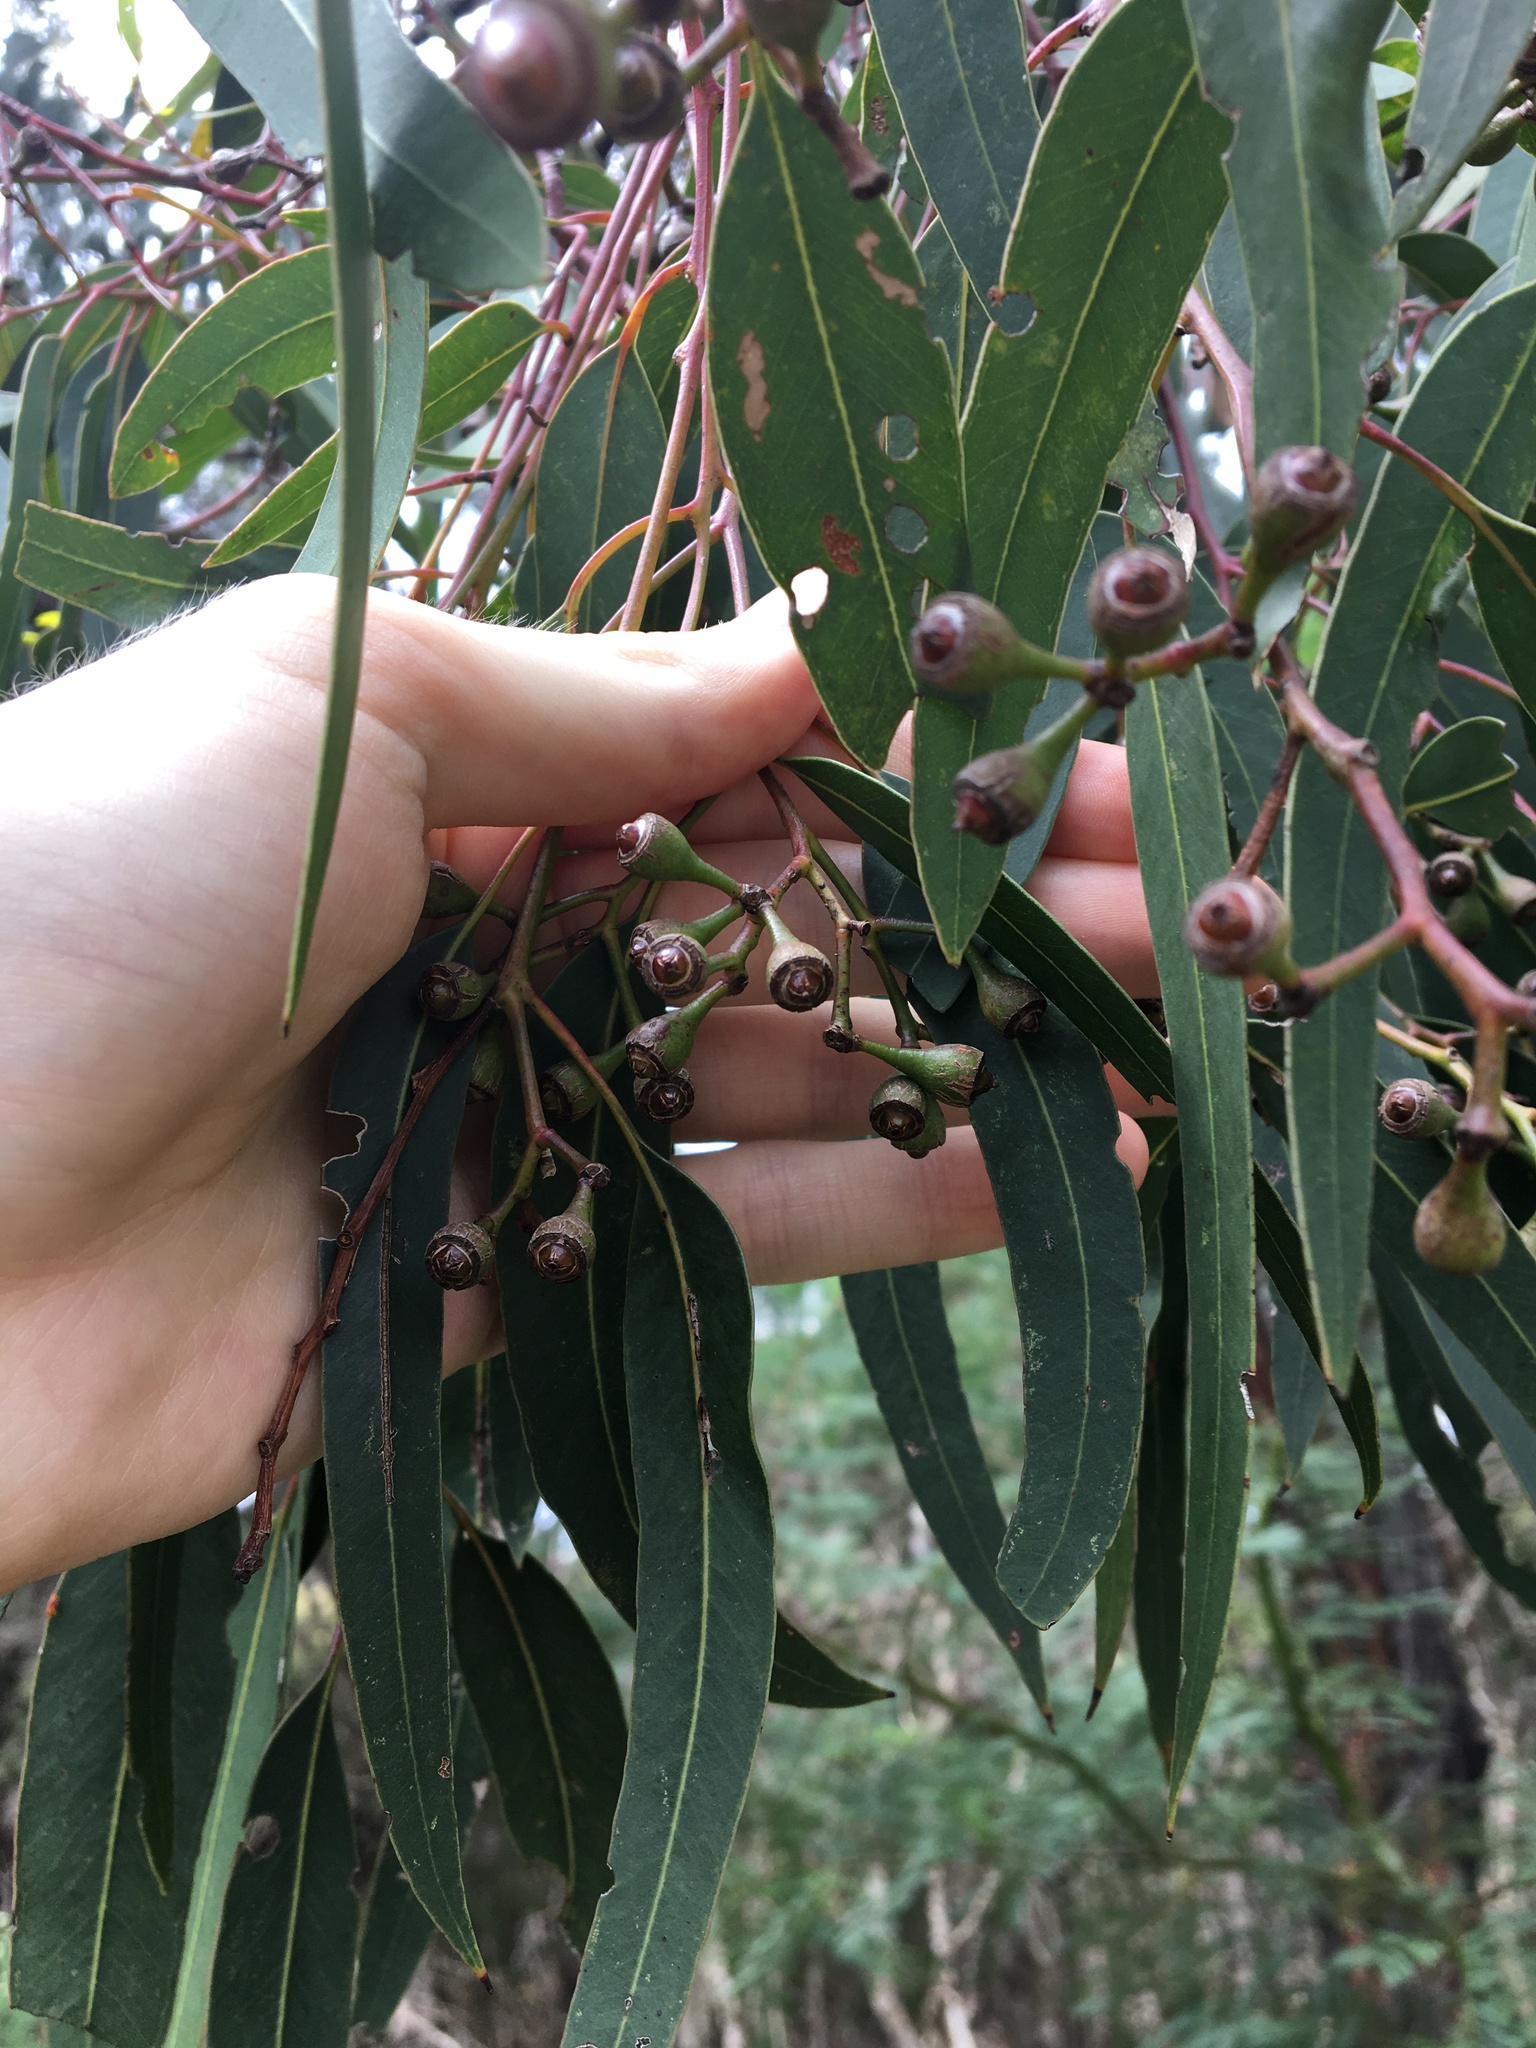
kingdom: Plantae
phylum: Tracheophyta
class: Magnoliopsida
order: Myrtales
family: Myrtaceae
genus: Eucalyptus
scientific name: Eucalyptus fibrosa
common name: Red ironbark
